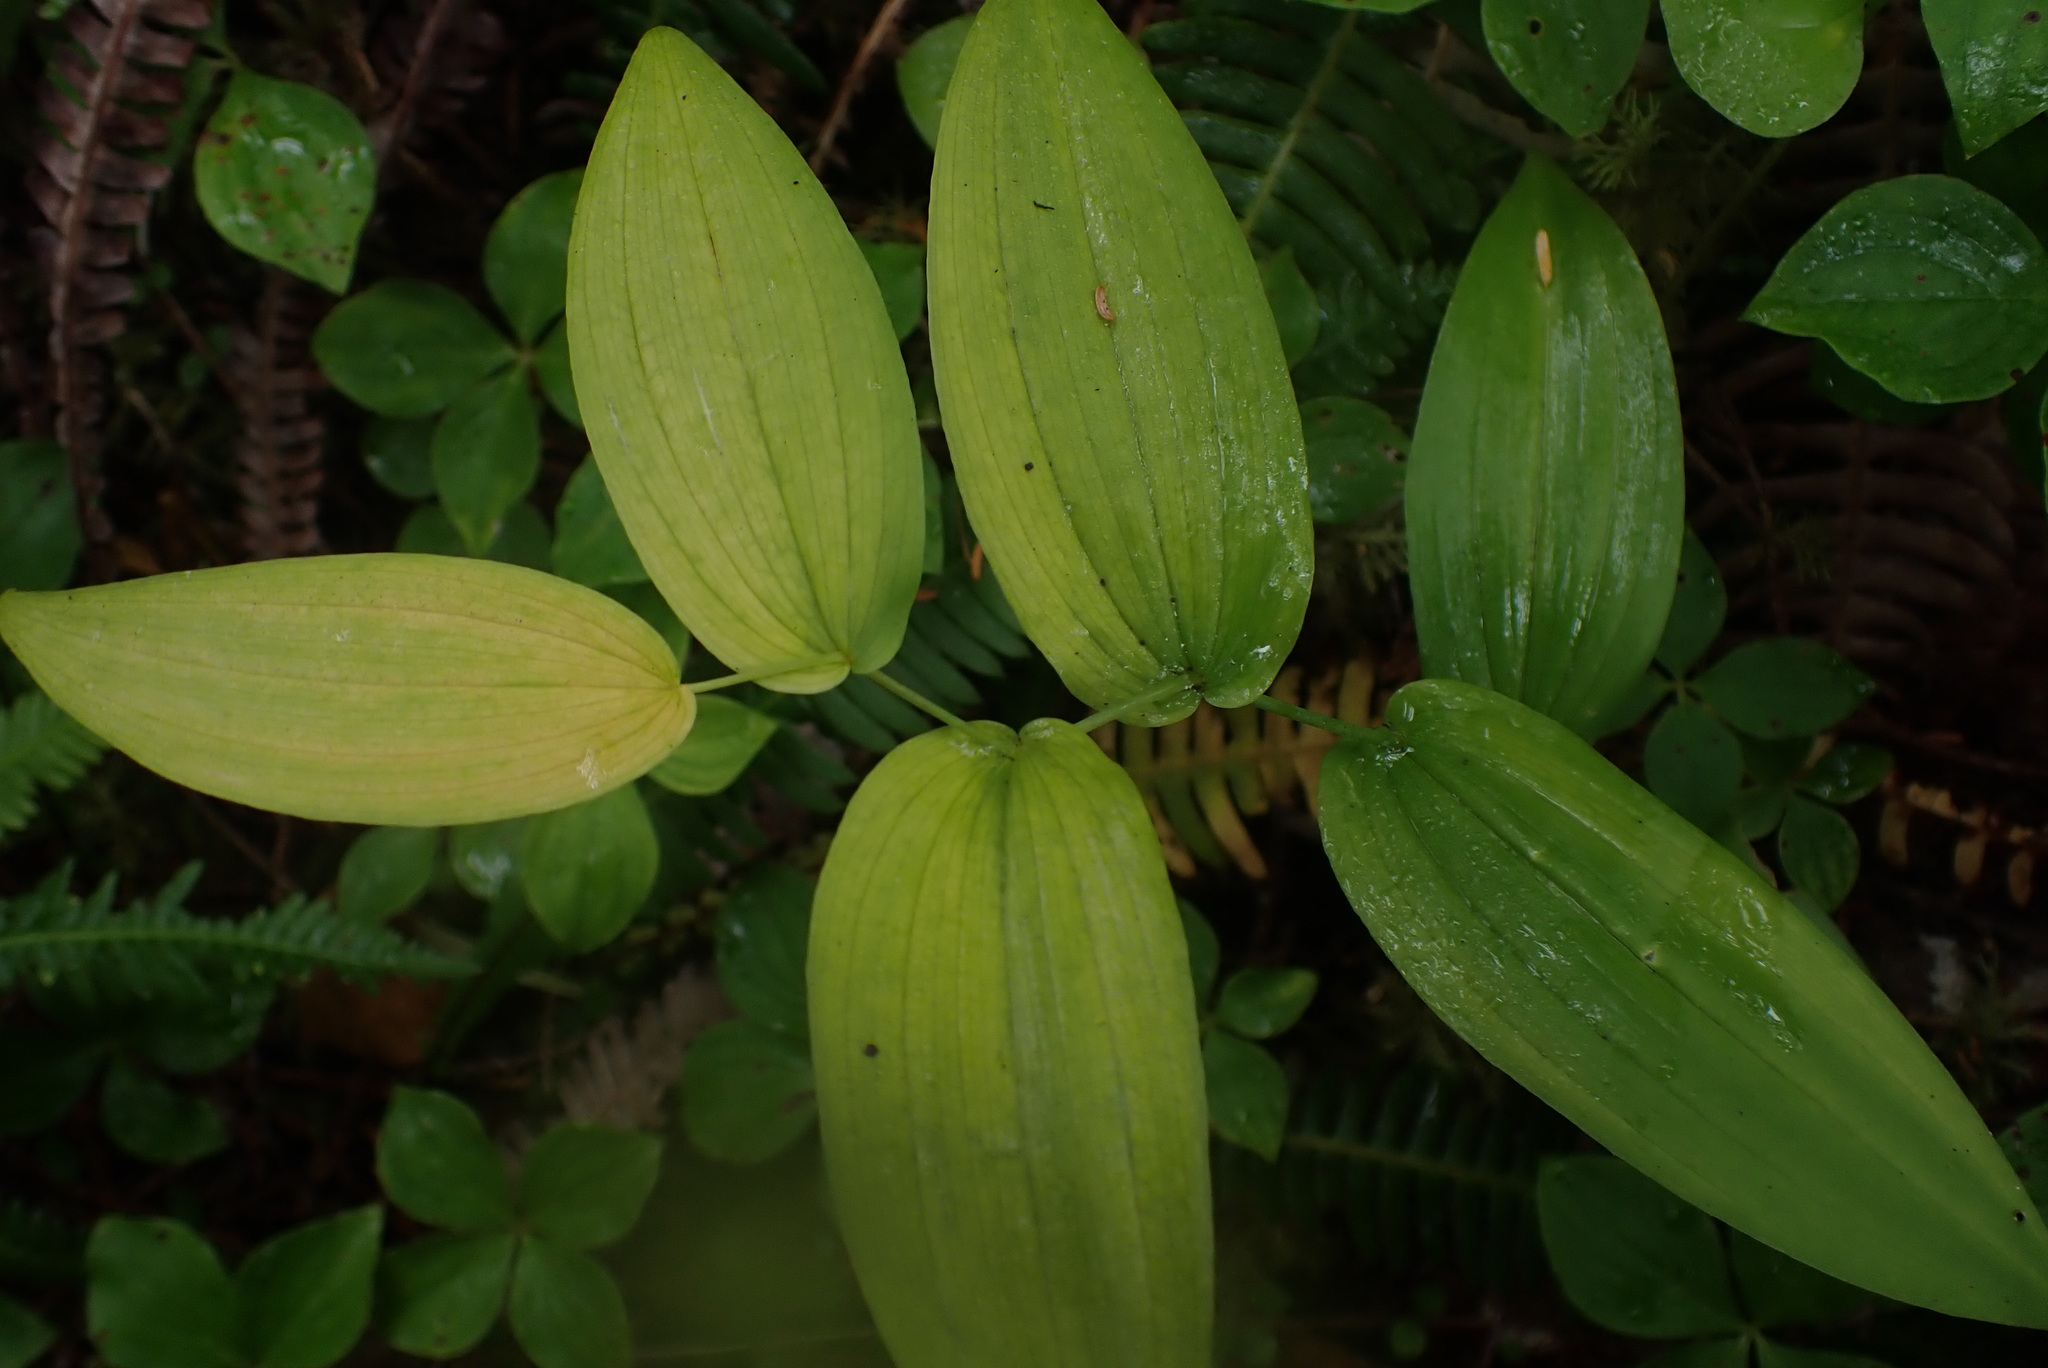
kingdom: Plantae
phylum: Tracheophyta
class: Liliopsida
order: Liliales
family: Liliaceae
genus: Streptopus
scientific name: Streptopus amplexifolius
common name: Clasp twisted stalk
